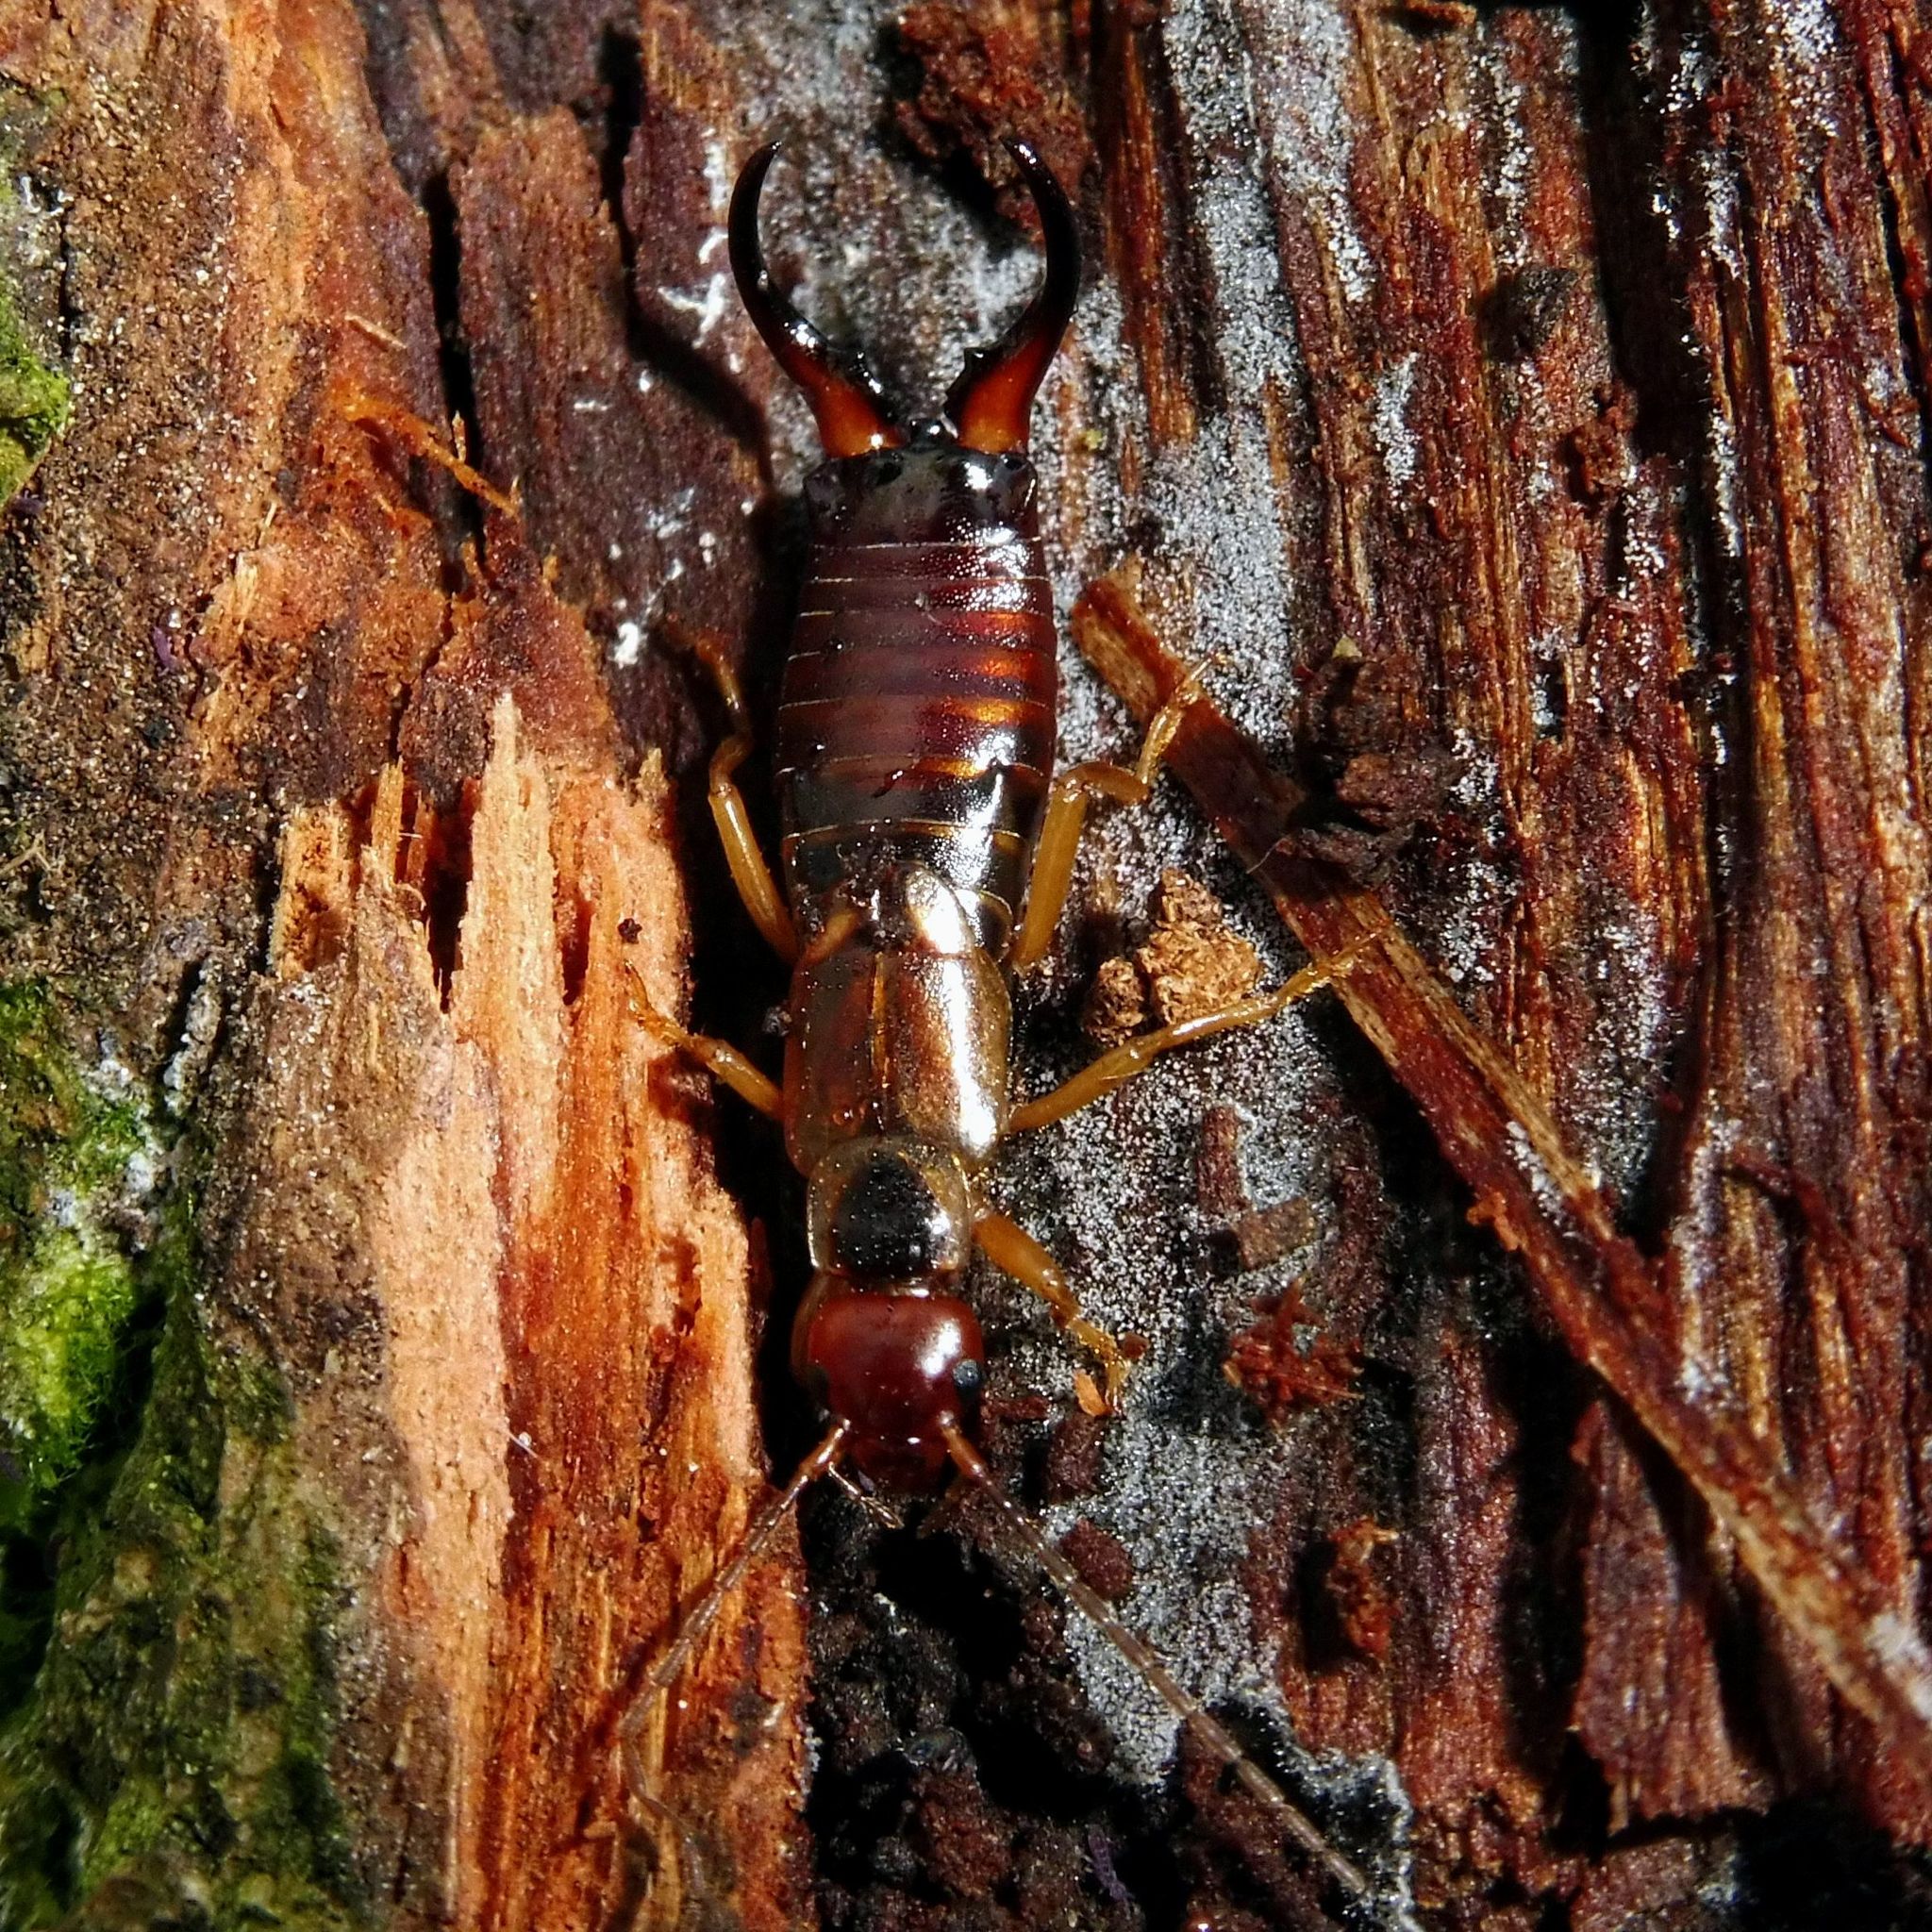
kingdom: Animalia
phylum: Arthropoda
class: Insecta
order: Dermaptera
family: Forficulidae
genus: Forficula
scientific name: Forficula
